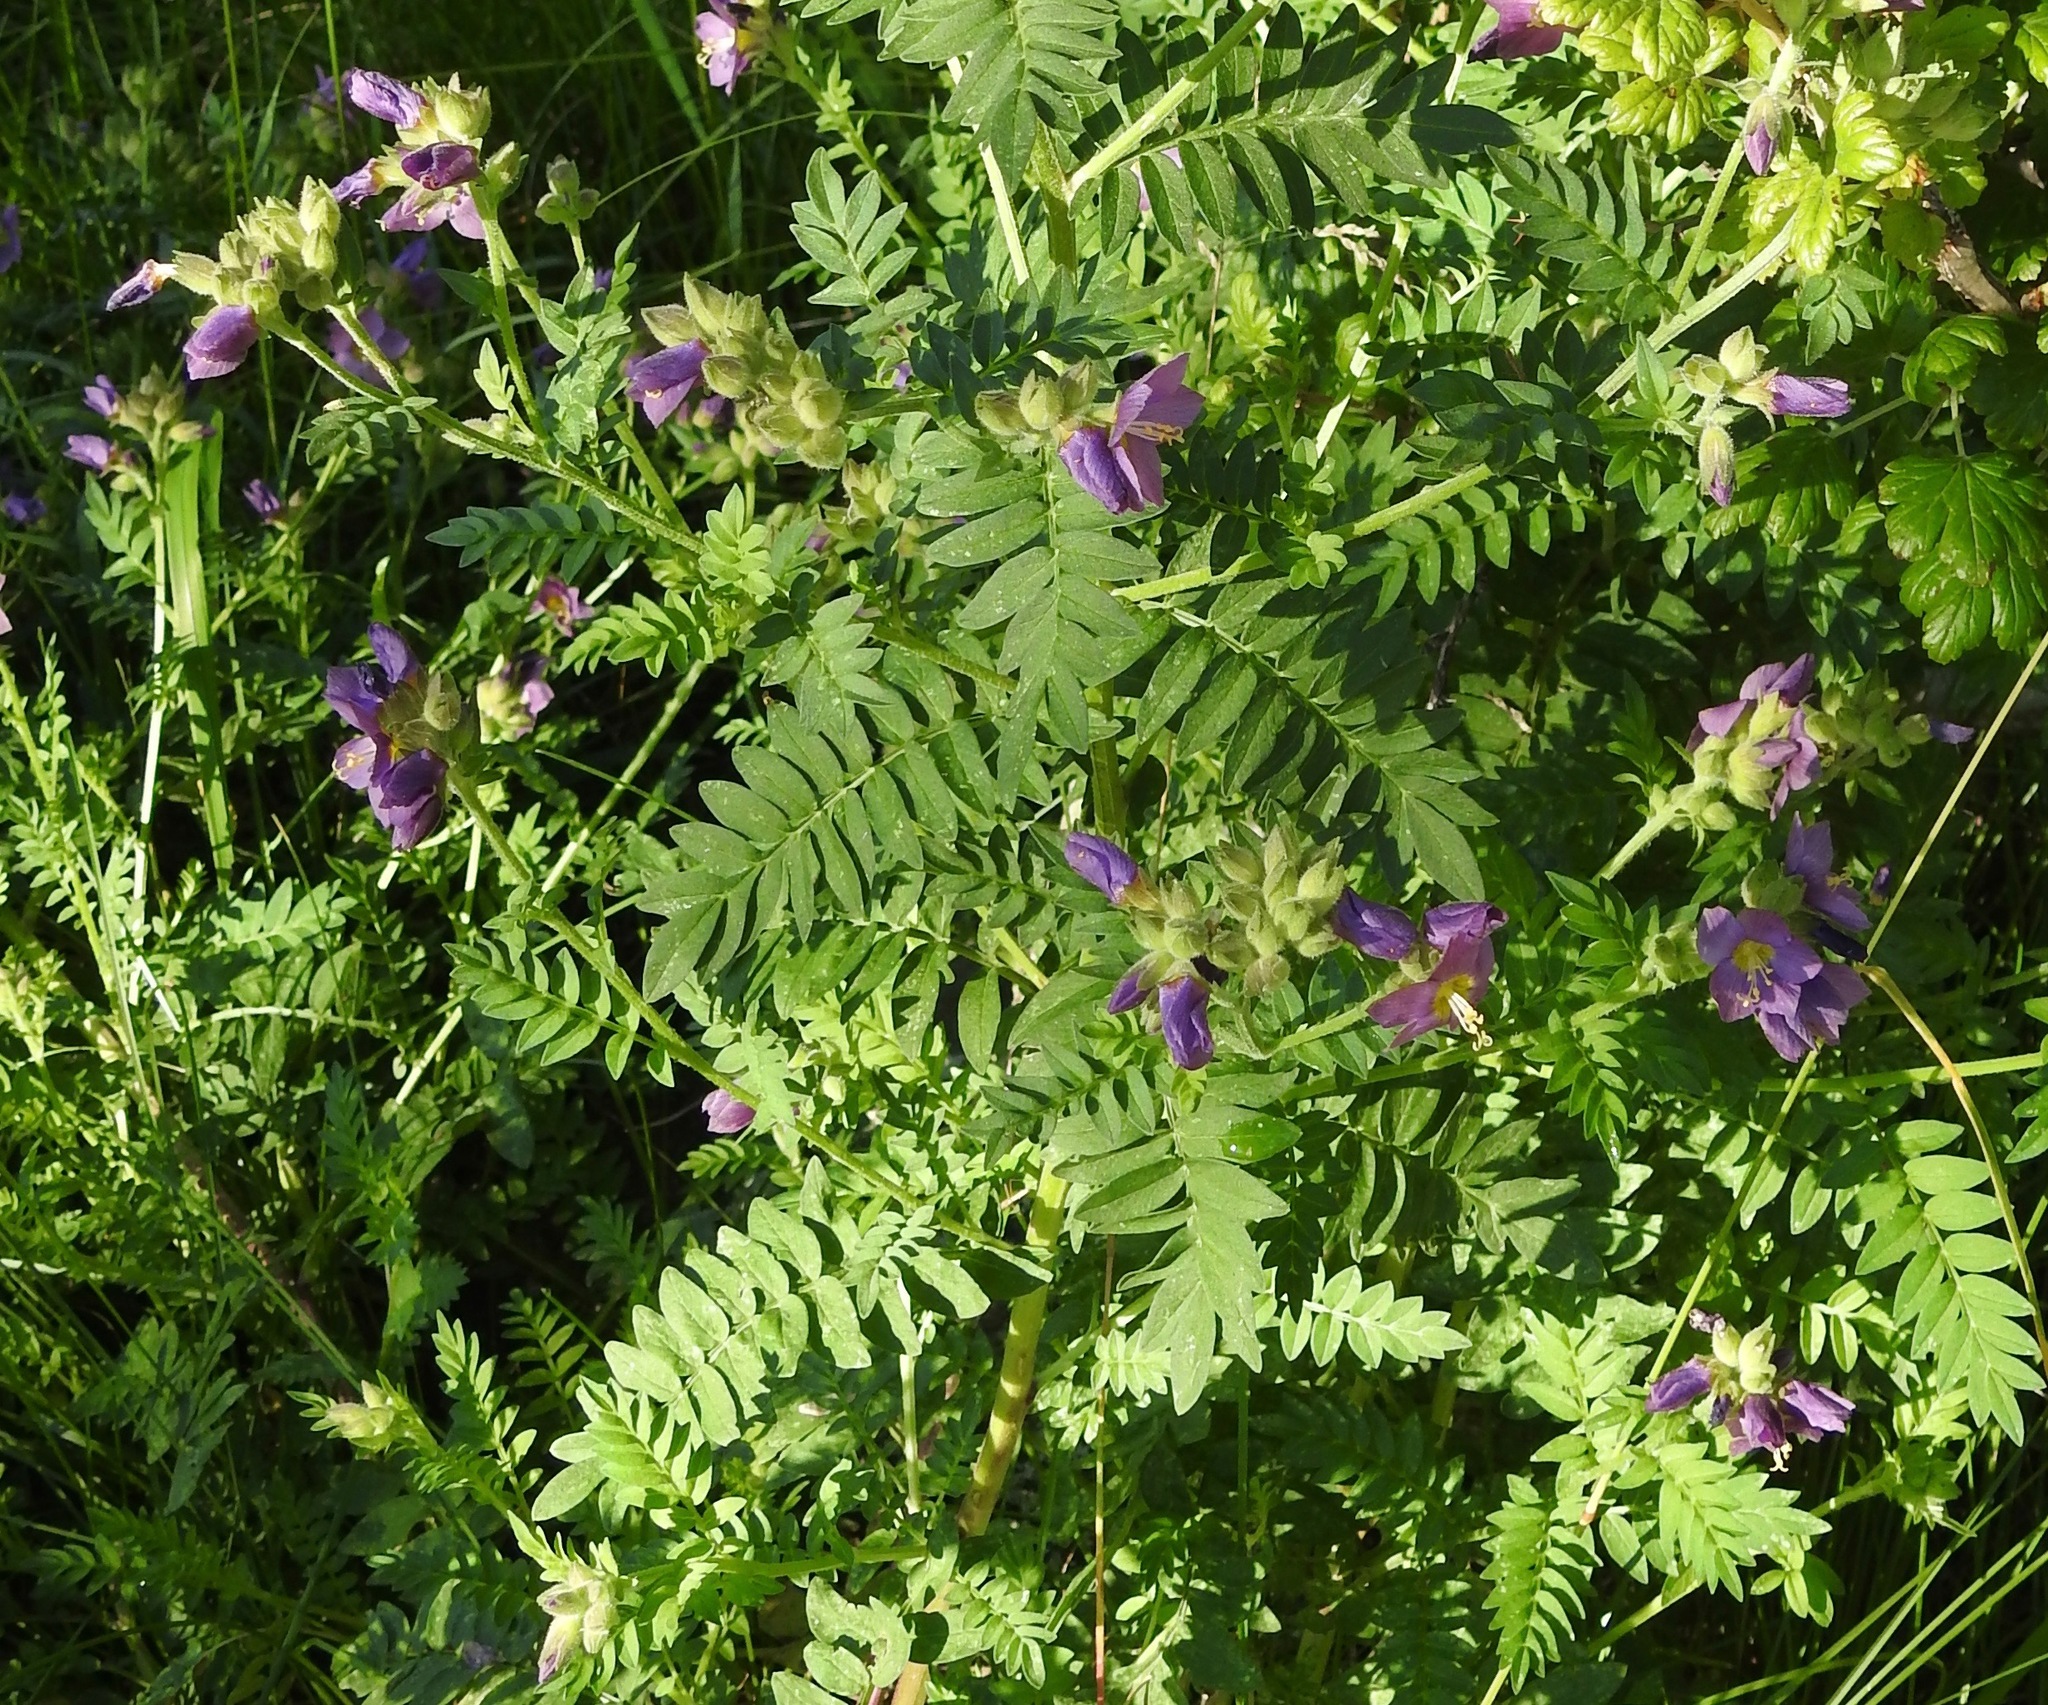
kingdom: Plantae
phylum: Tracheophyta
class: Magnoliopsida
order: Ericales
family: Polemoniaceae
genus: Polemonium
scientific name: Polemonium apachianum
